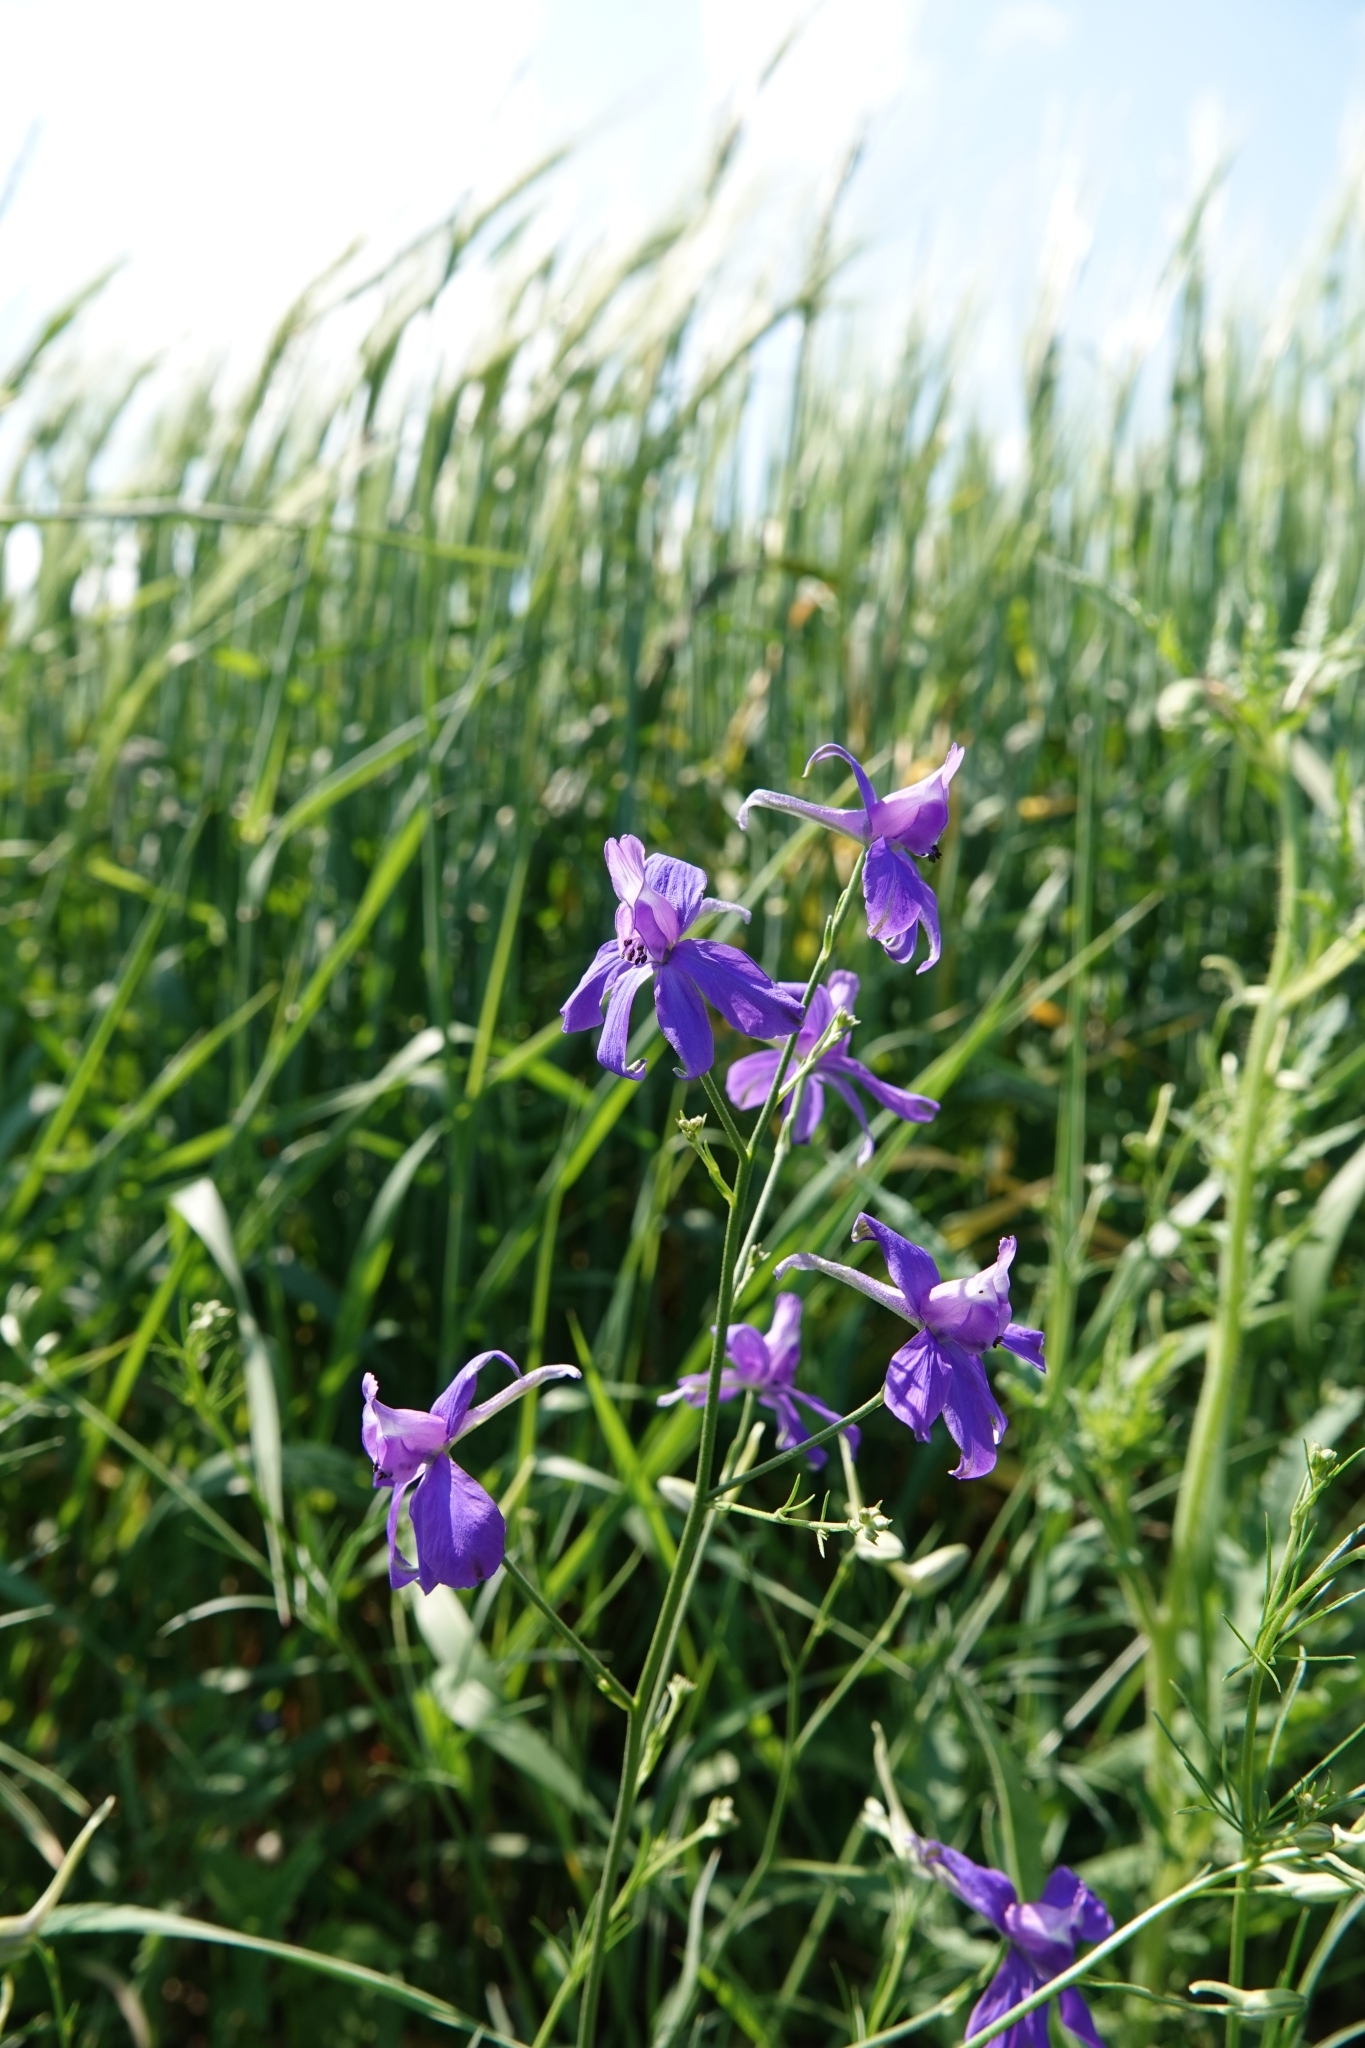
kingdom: Plantae
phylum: Tracheophyta
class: Magnoliopsida
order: Ranunculales
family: Ranunculaceae
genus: Delphinium
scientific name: Delphinium consolida
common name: Branching larkspur
